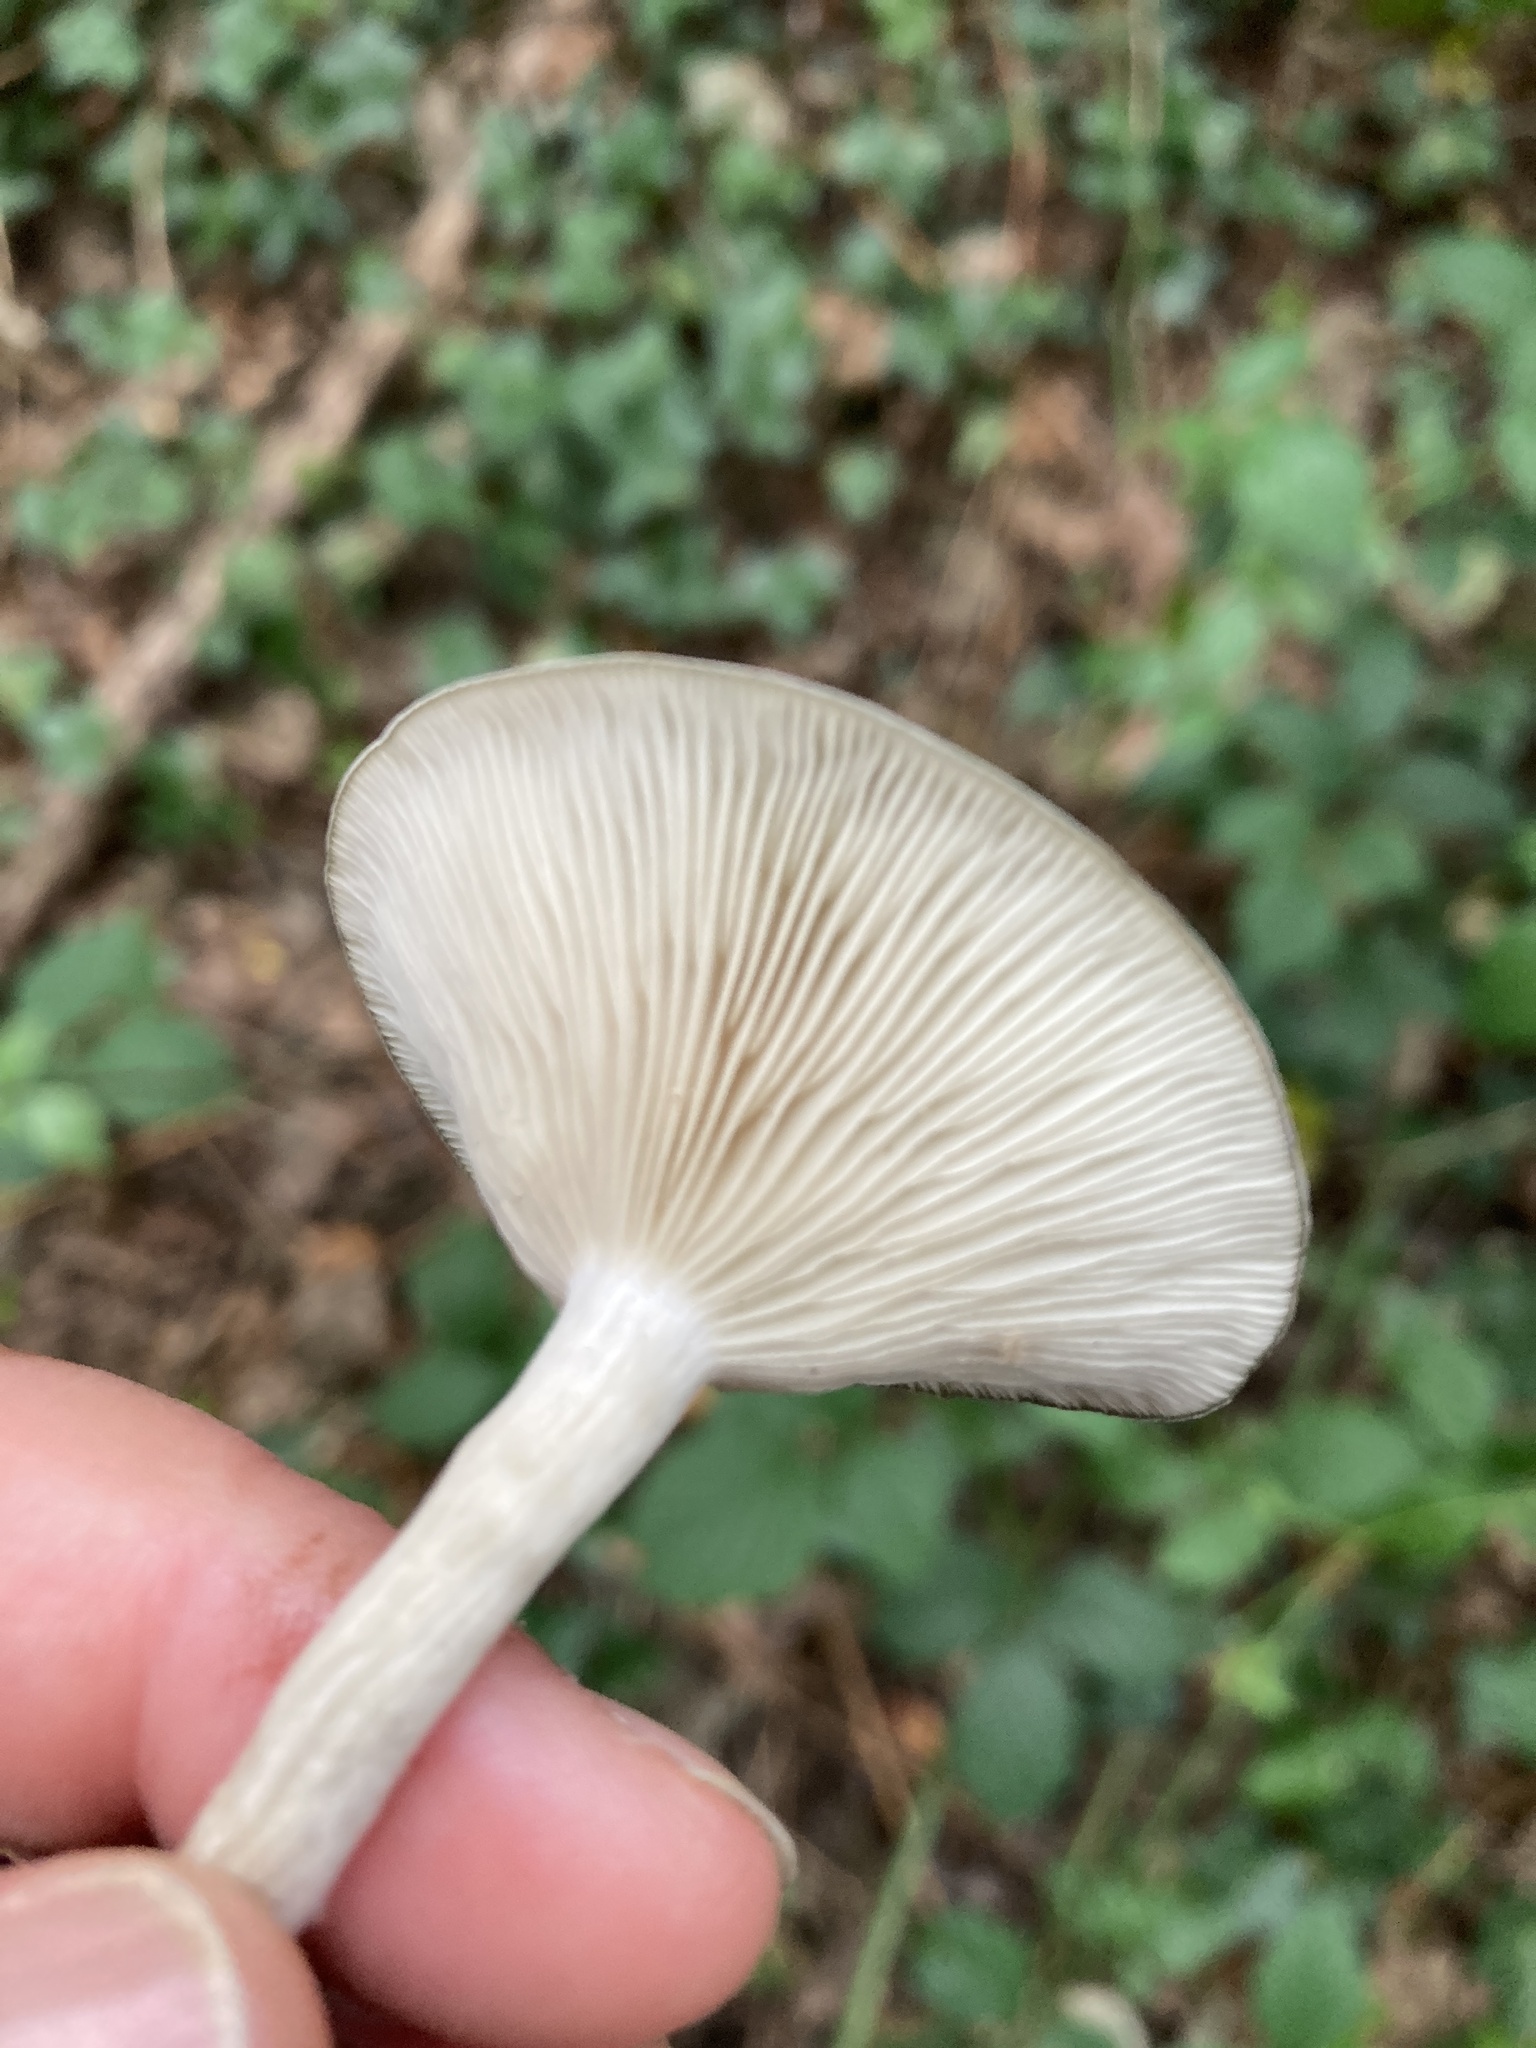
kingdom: Fungi
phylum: Basidiomycota
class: Agaricomycetes
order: Agaricales
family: Tricholomataceae
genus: Collybia
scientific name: Collybia
